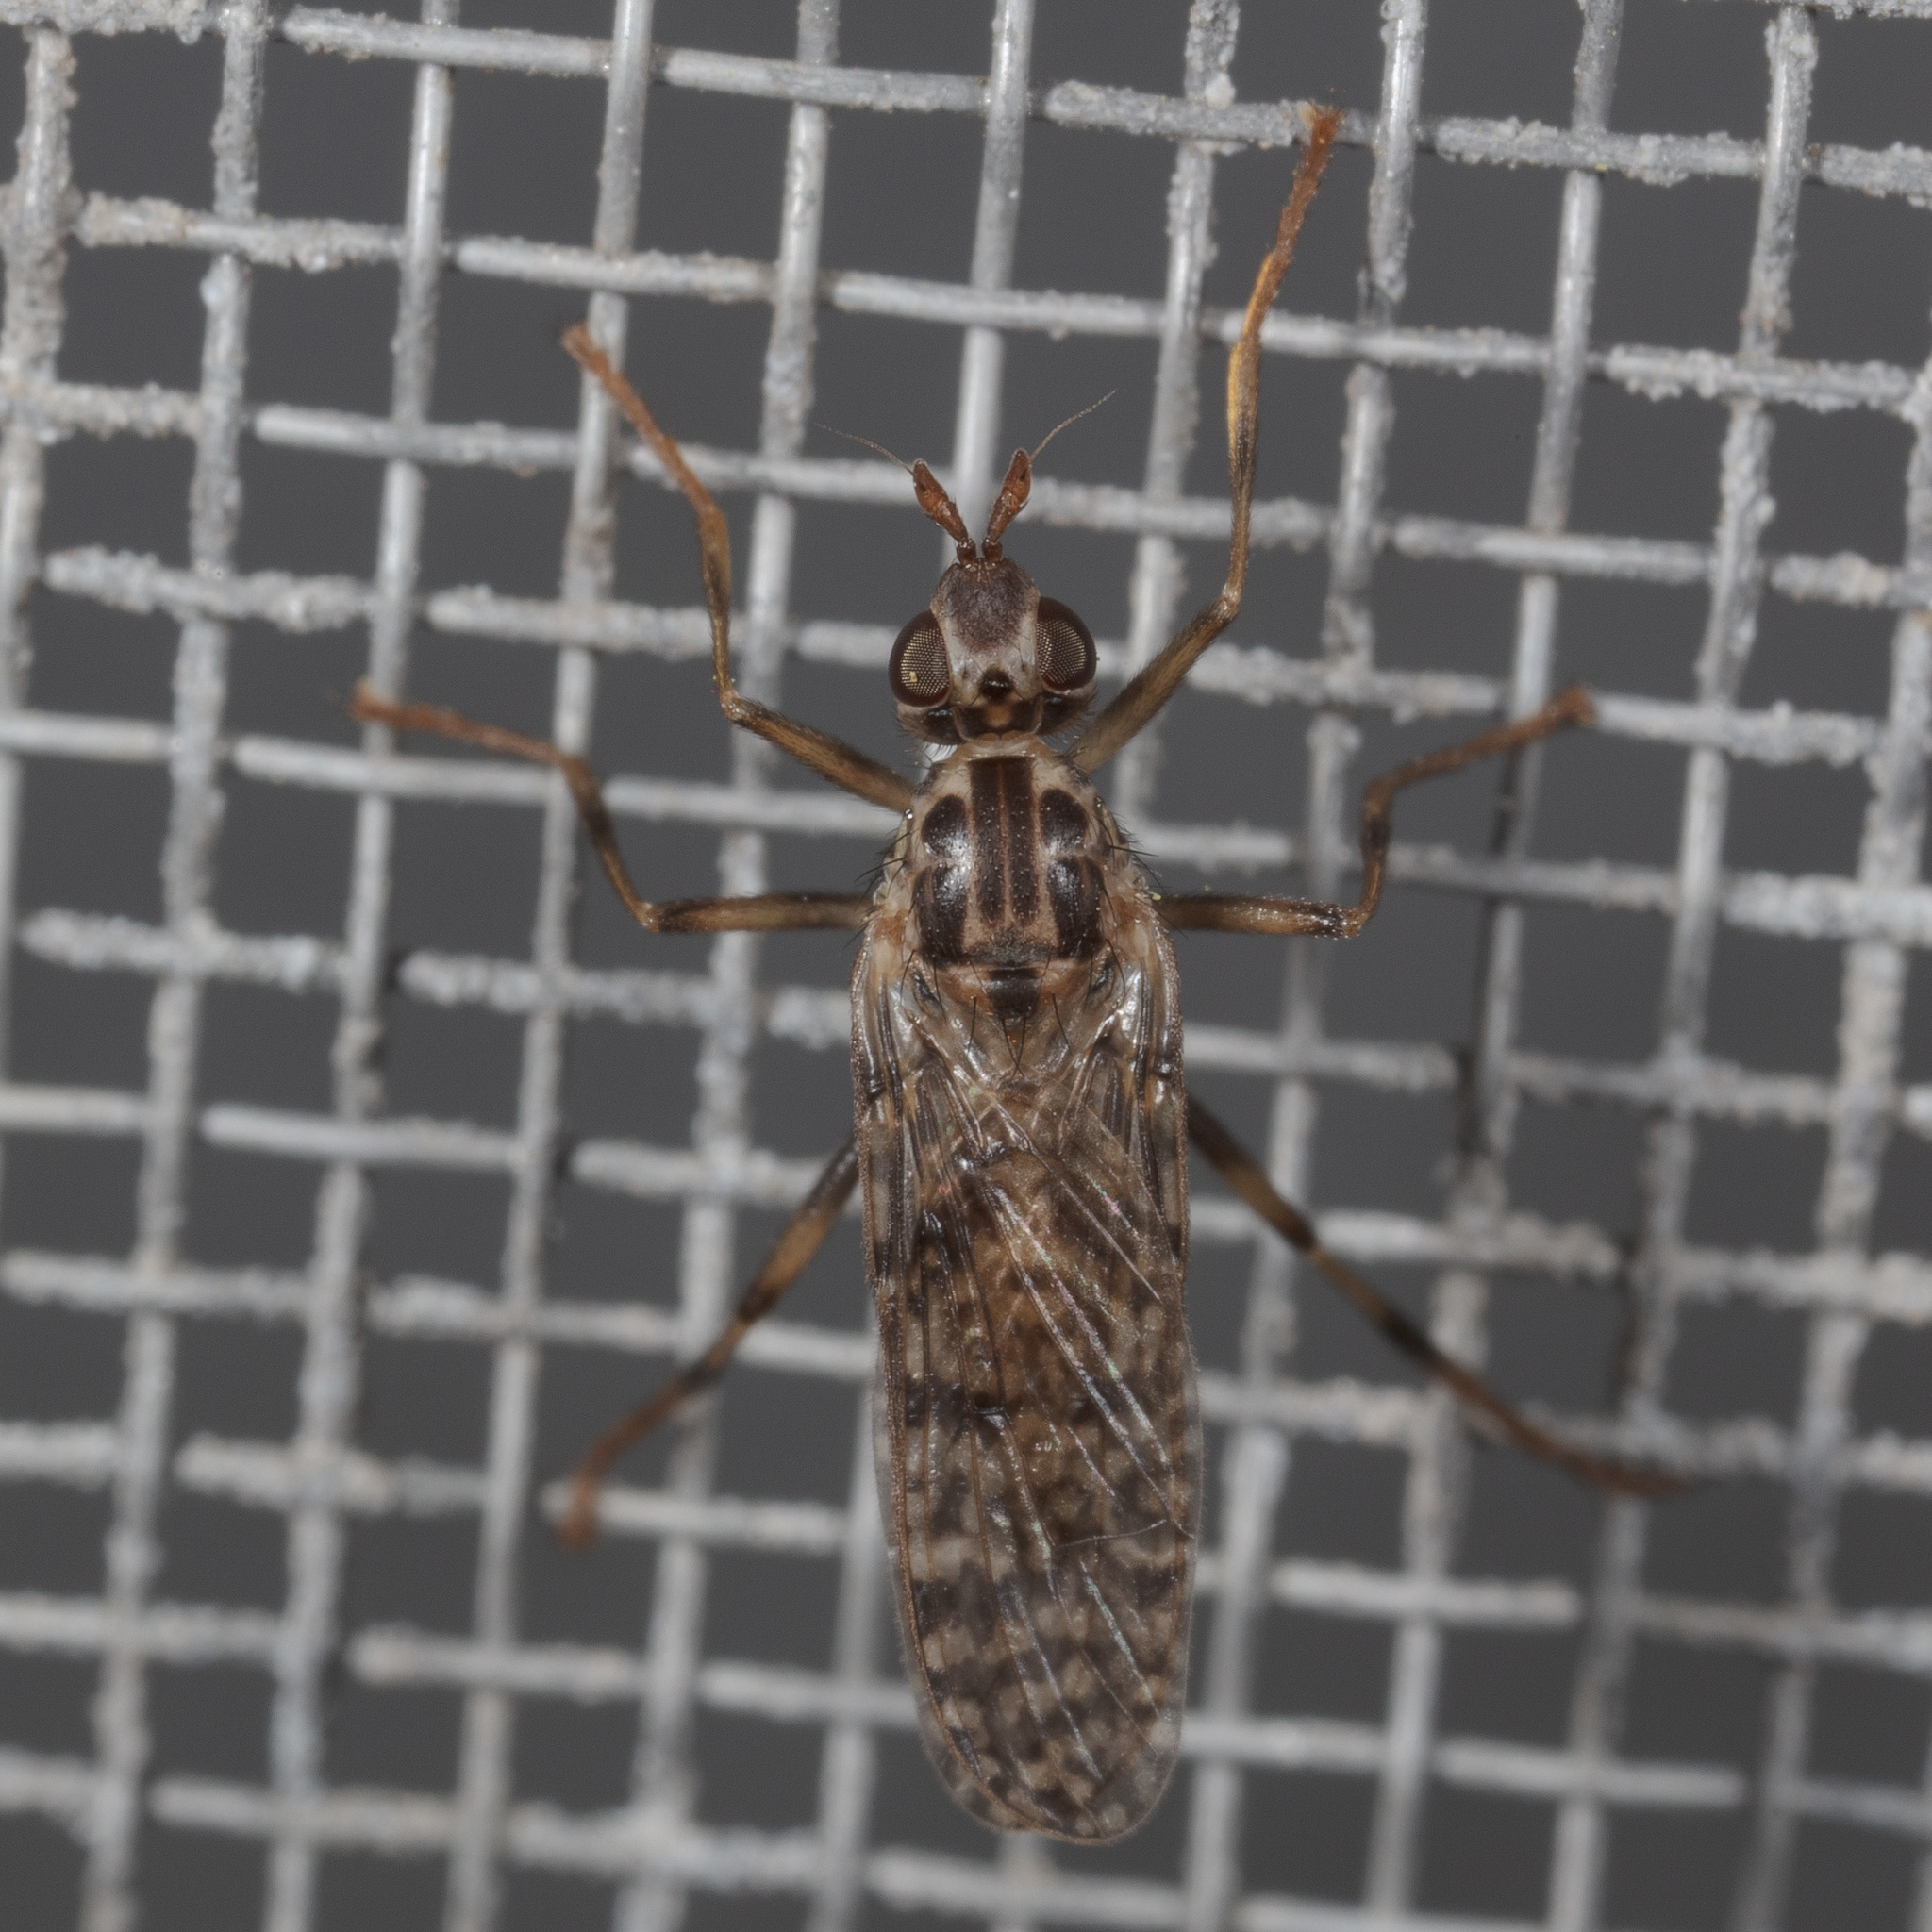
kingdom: Animalia
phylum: Arthropoda
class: Insecta
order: Diptera
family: Pyrgotidae
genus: Boreothrinax
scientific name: Boreothrinax
